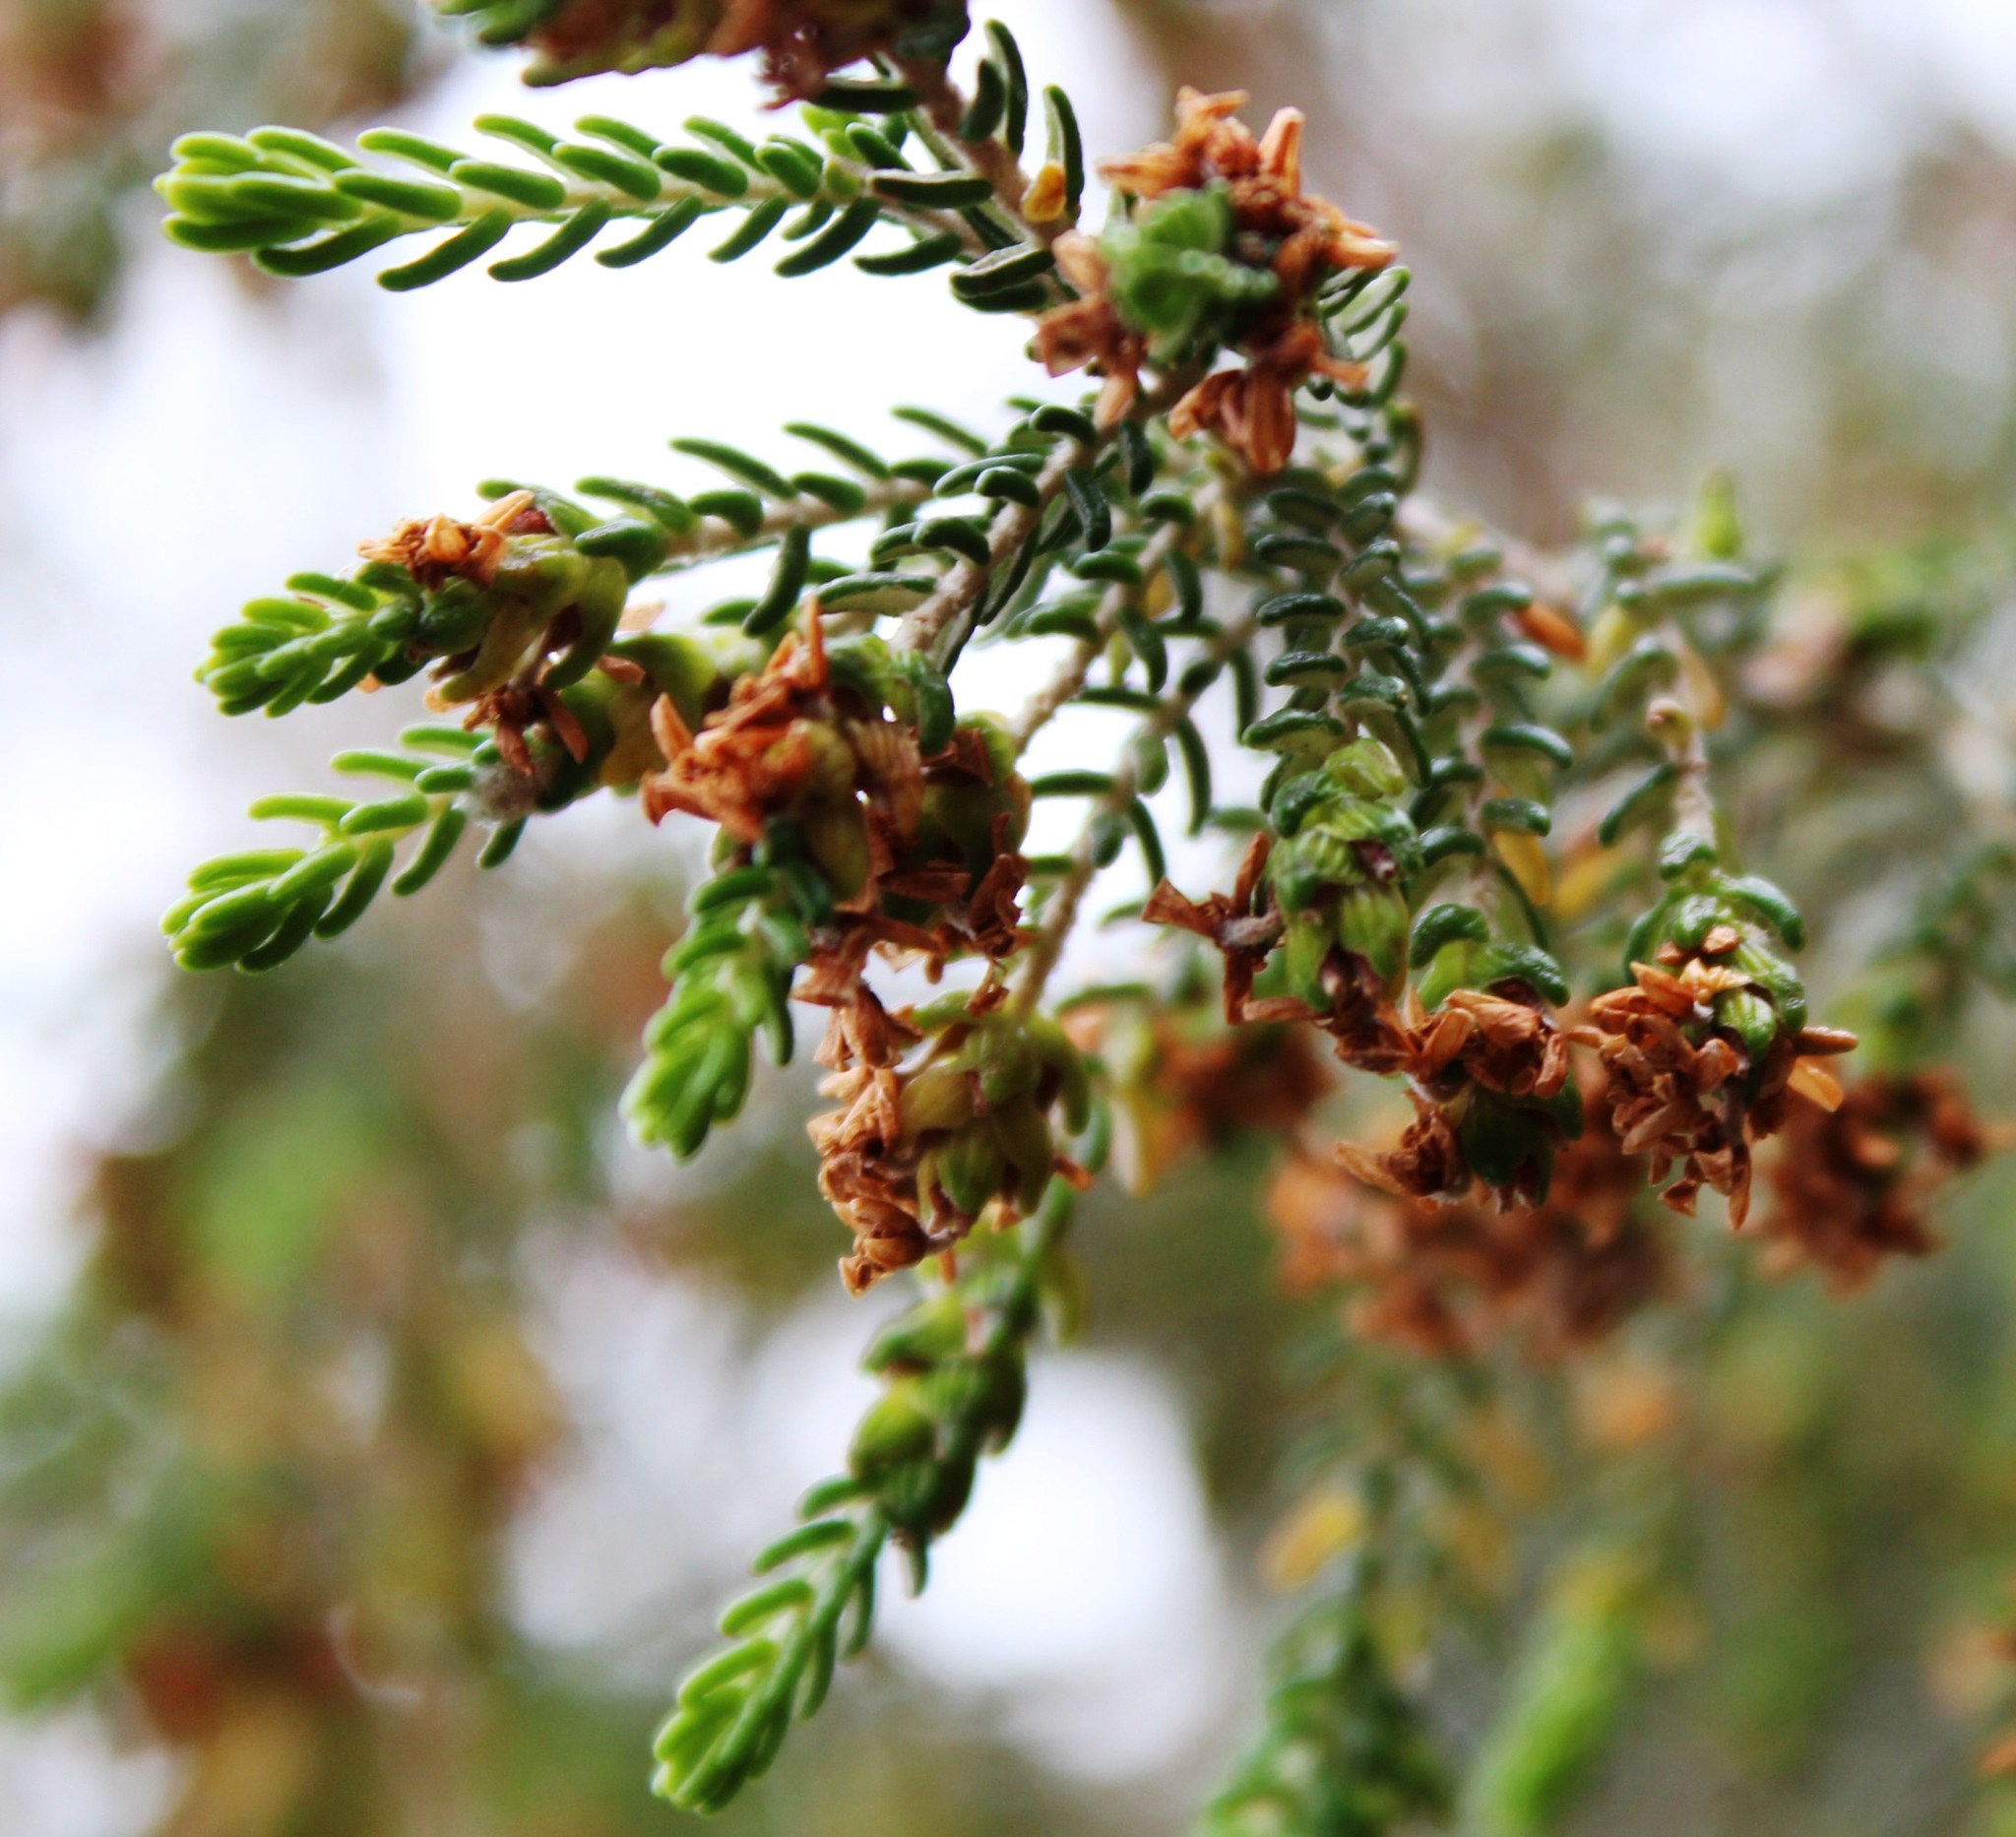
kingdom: Plantae
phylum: Tracheophyta
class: Magnoliopsida
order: Malvales
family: Thymelaeaceae
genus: Passerina
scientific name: Passerina falcifolia
